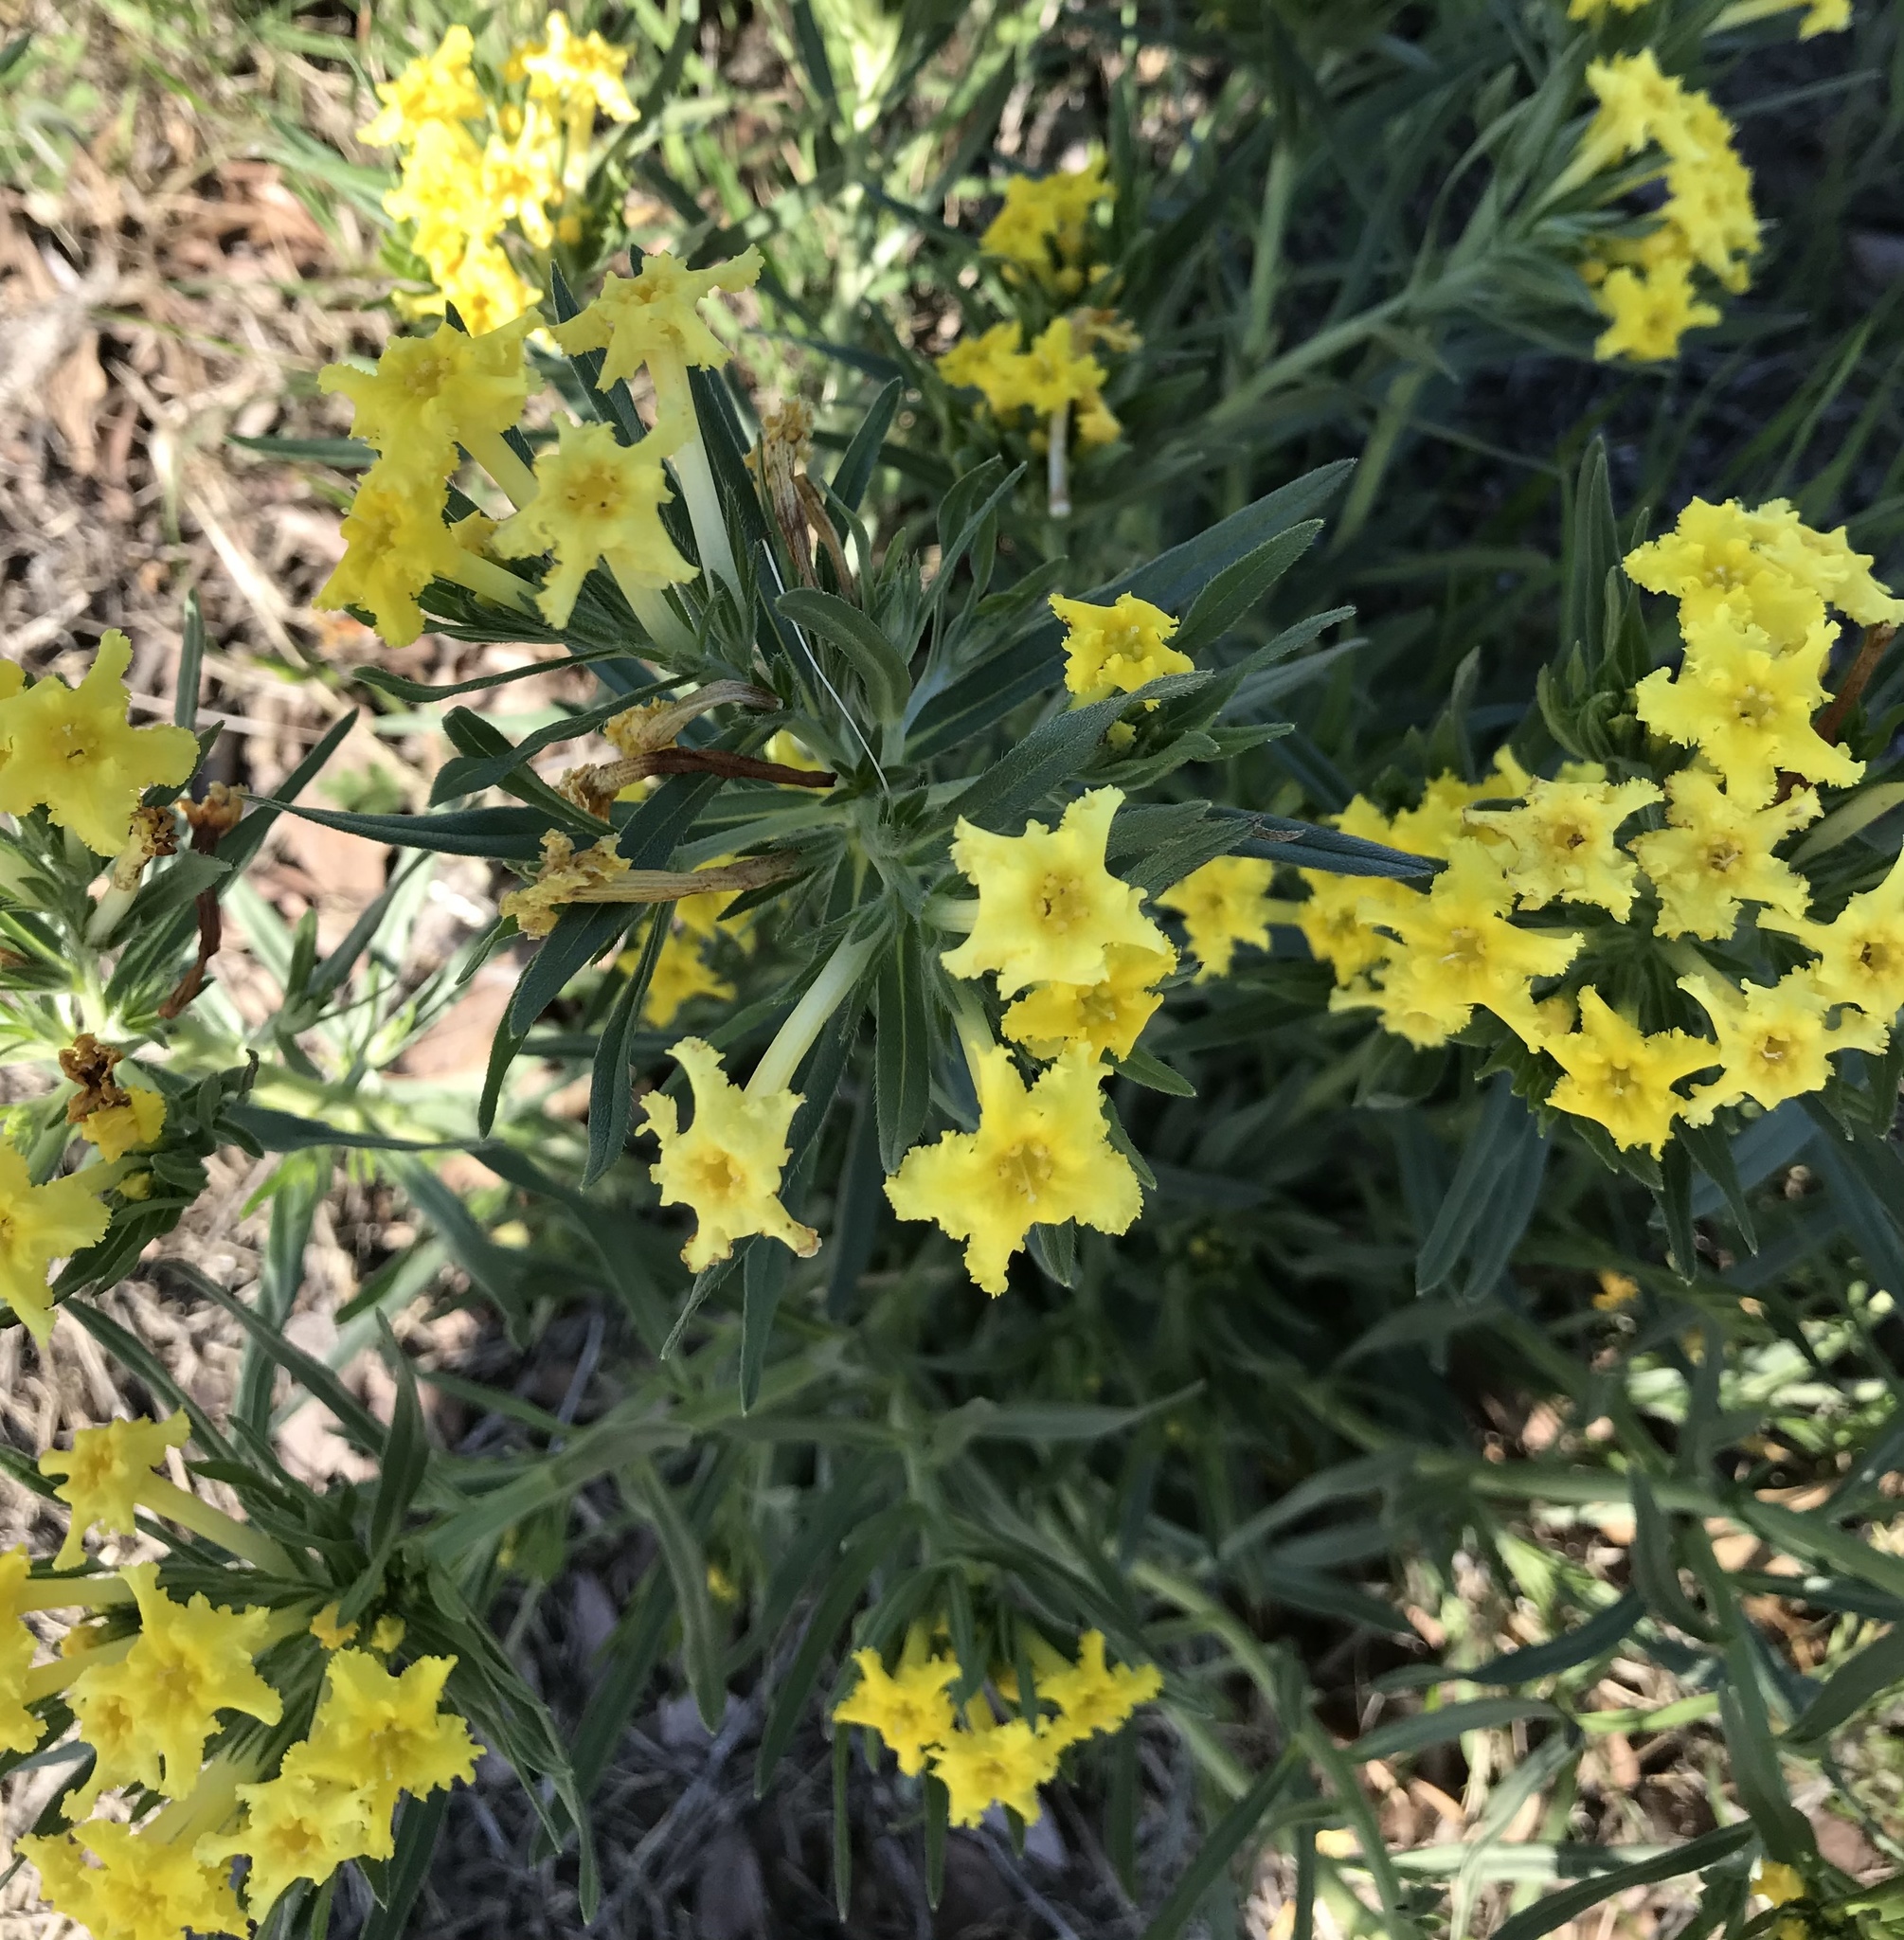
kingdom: Plantae
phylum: Tracheophyta
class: Magnoliopsida
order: Boraginales
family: Boraginaceae
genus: Lithospermum
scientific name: Lithospermum incisum
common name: Fringed gromwell
